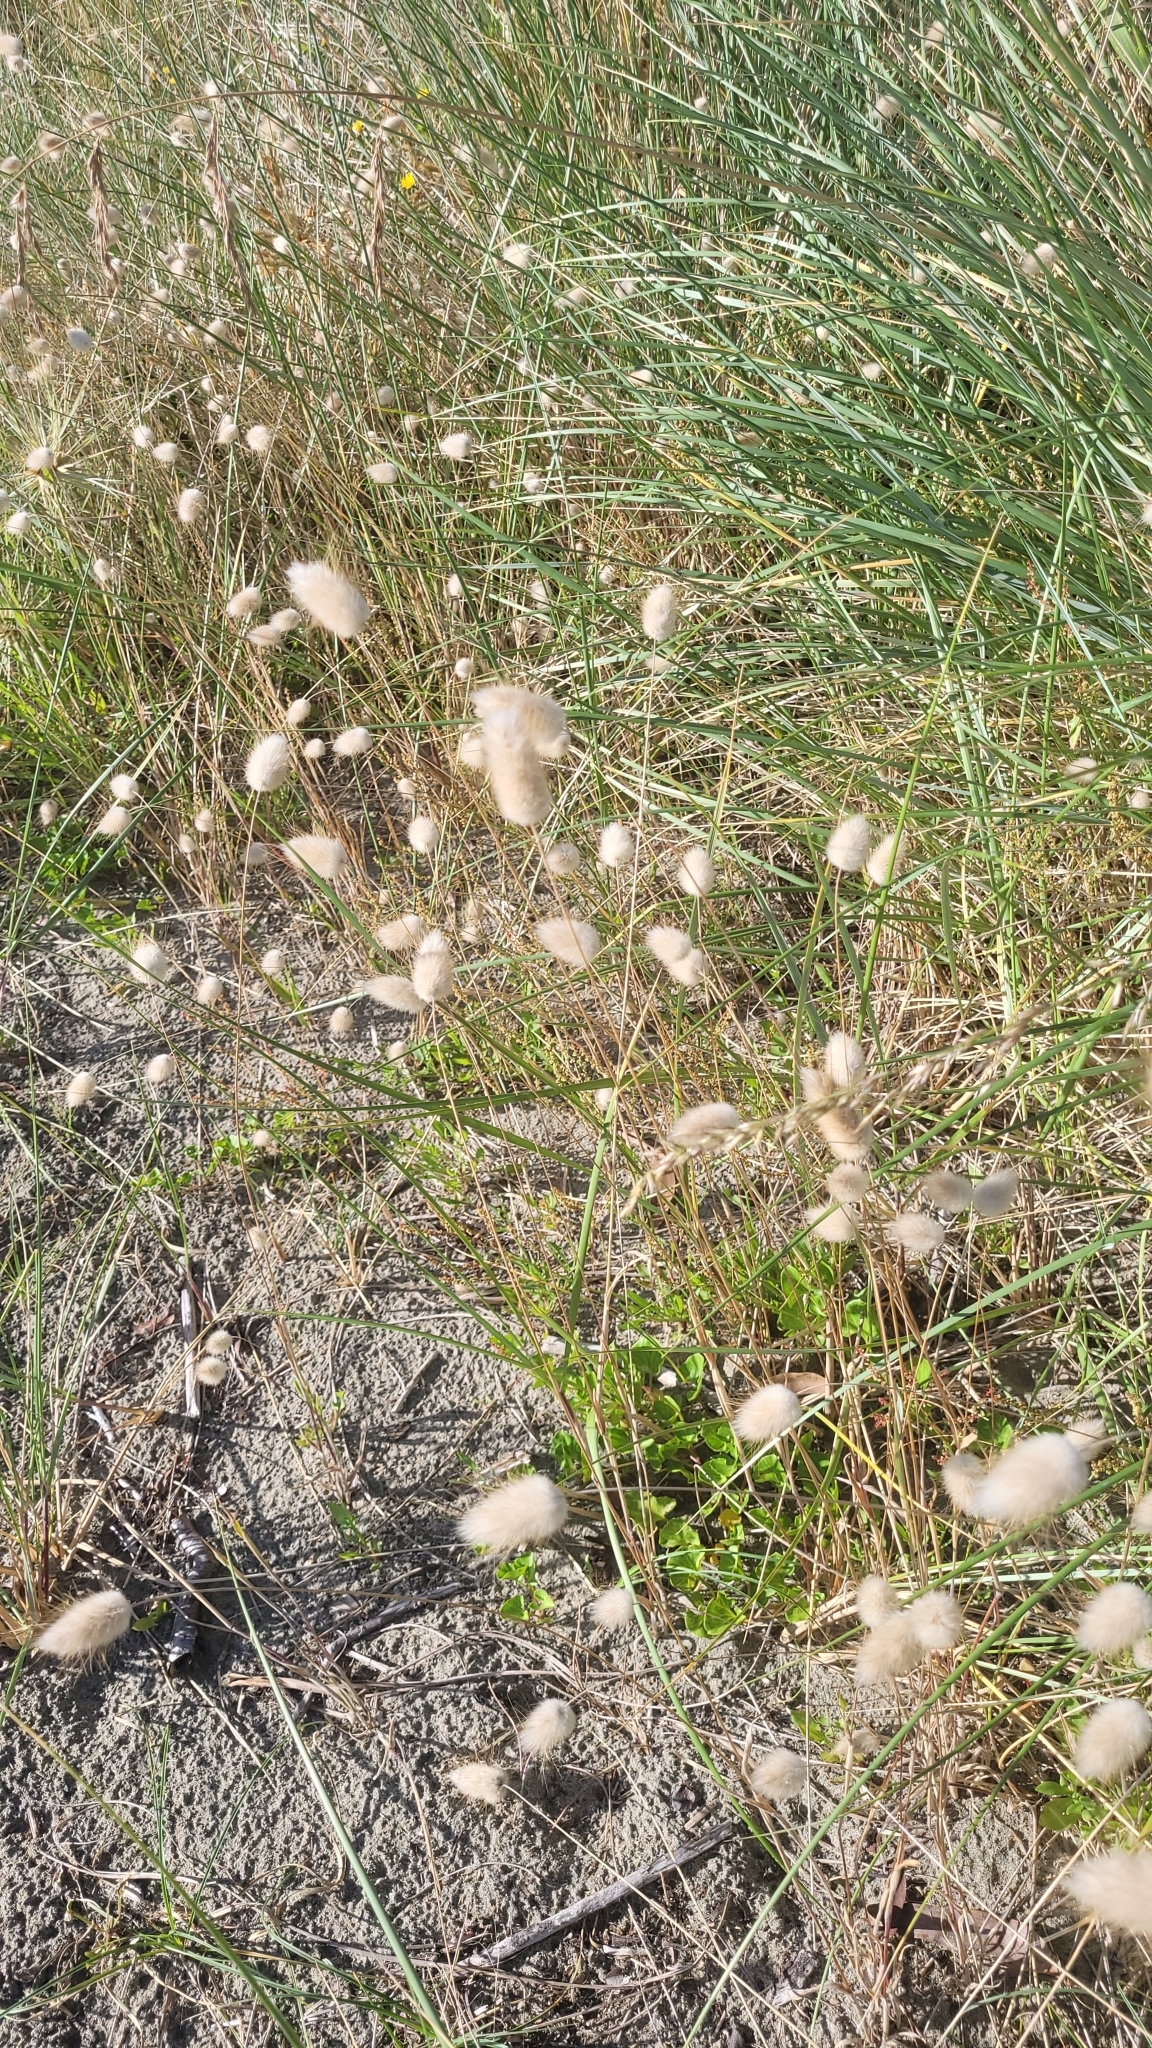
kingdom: Plantae
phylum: Tracheophyta
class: Liliopsida
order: Poales
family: Poaceae
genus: Lagurus
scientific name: Lagurus ovatus
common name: Hare's-tail
